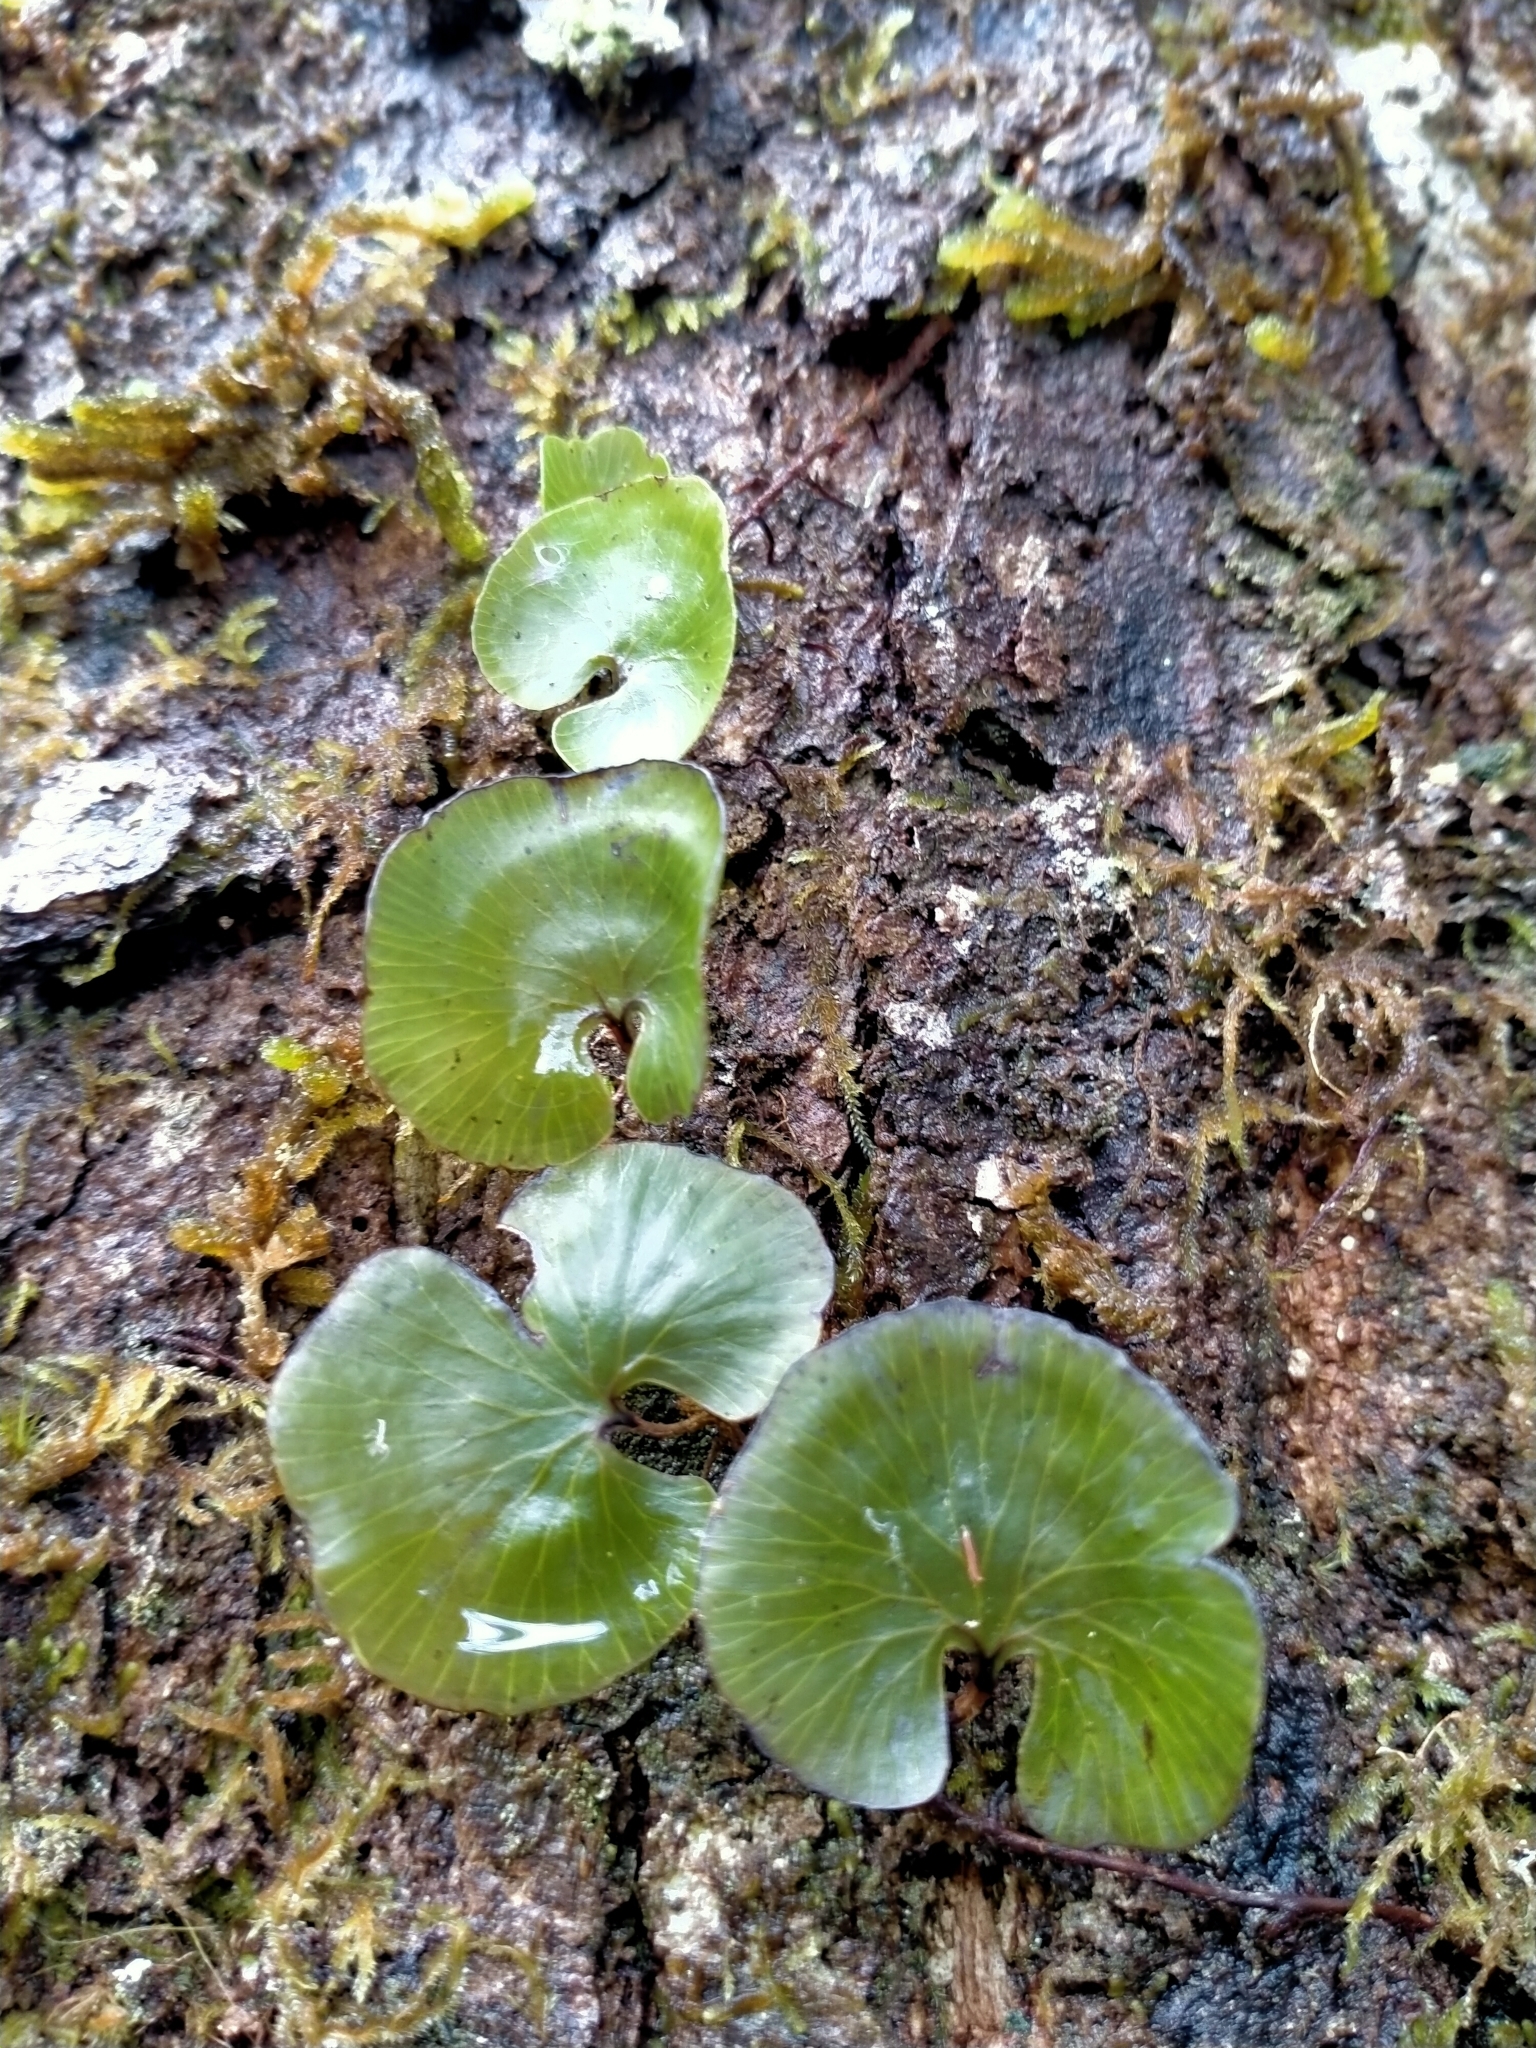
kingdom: Plantae
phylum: Tracheophyta
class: Polypodiopsida
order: Hymenophyllales
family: Hymenophyllaceae
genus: Hymenophyllum
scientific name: Hymenophyllum nephrophyllum
